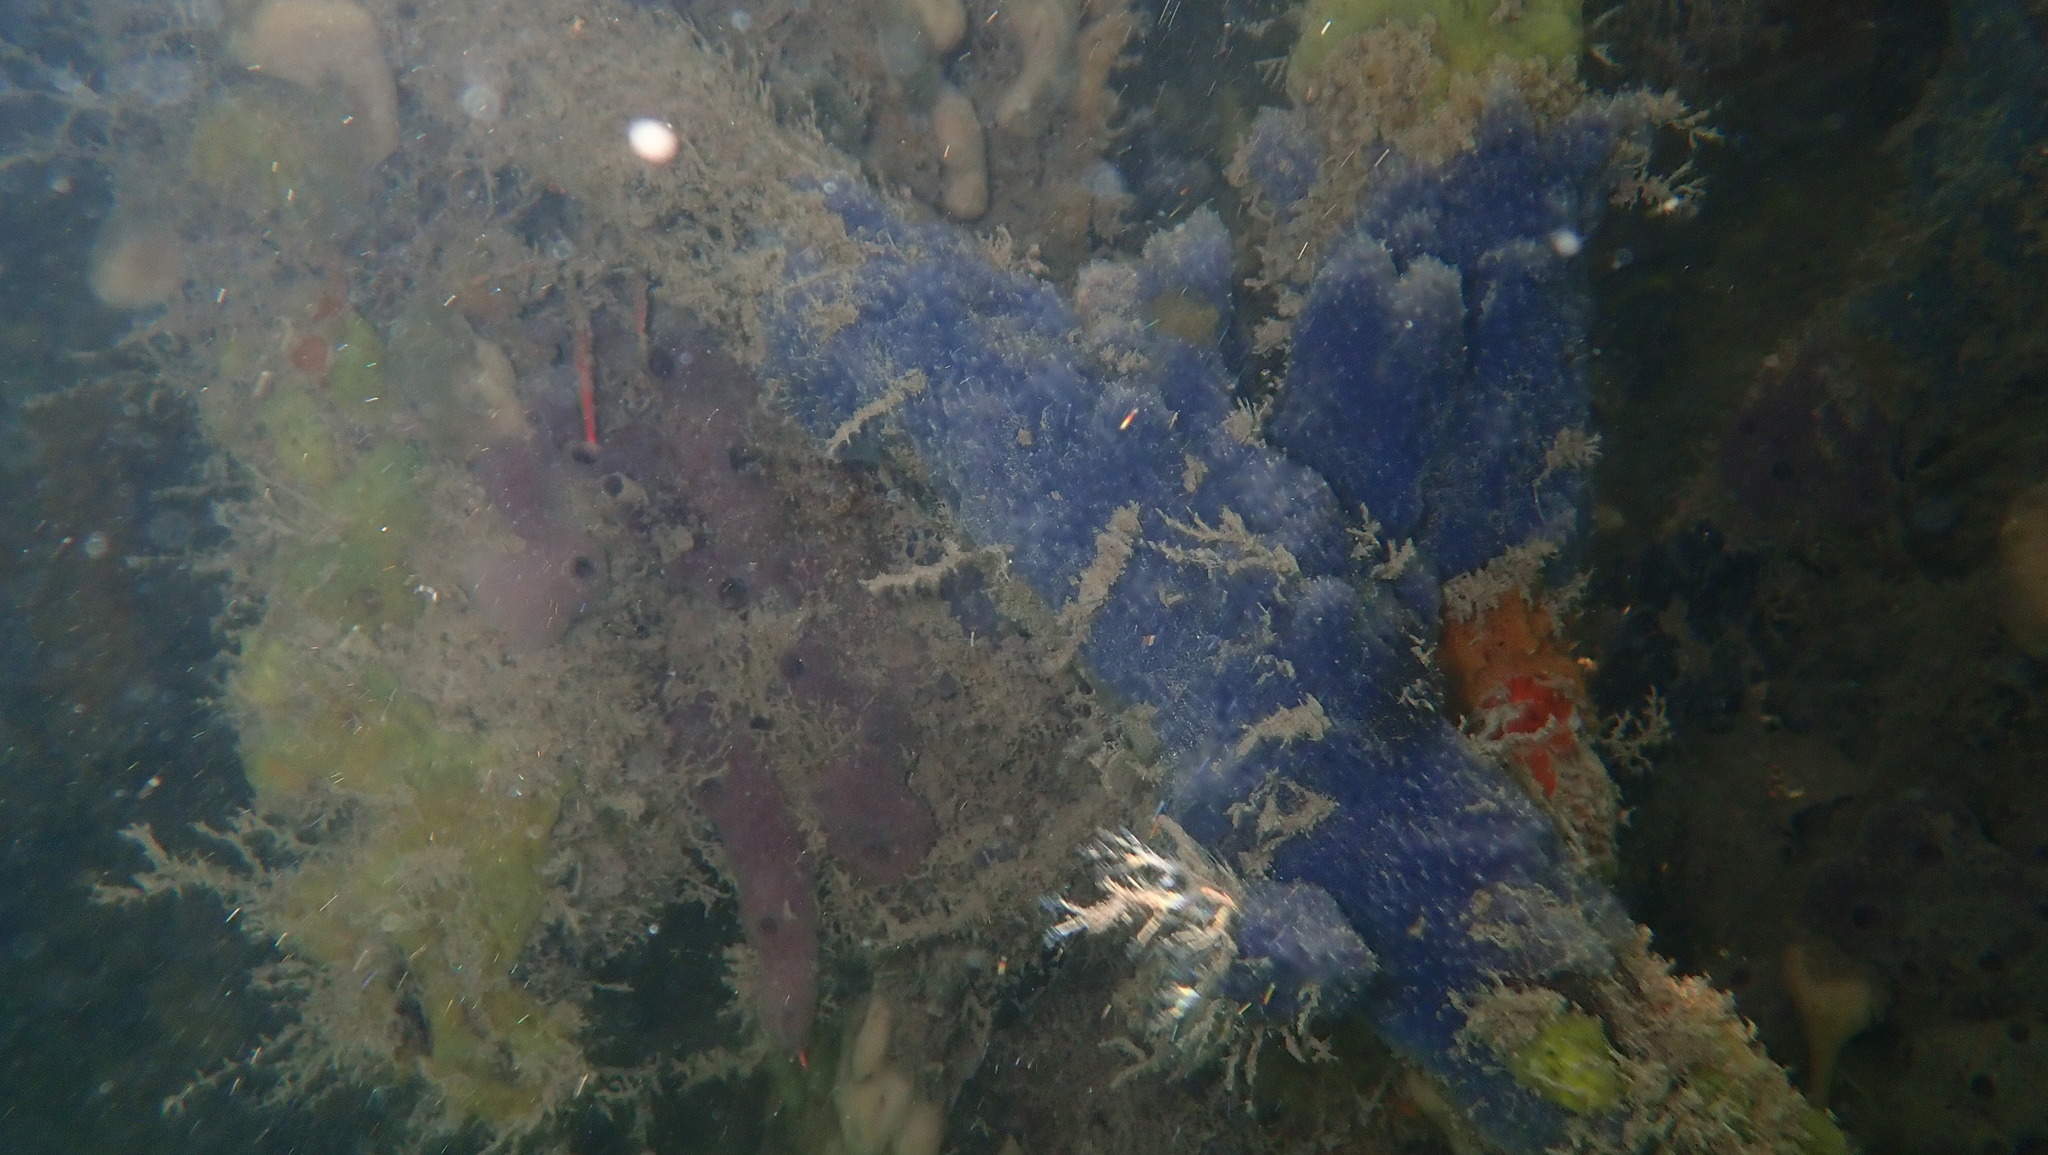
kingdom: Animalia
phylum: Porifera
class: Demospongiae
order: Dictyoceratida
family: Dysideidae
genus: Dysidea
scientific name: Dysidea etheria
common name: Heavenly sponge
